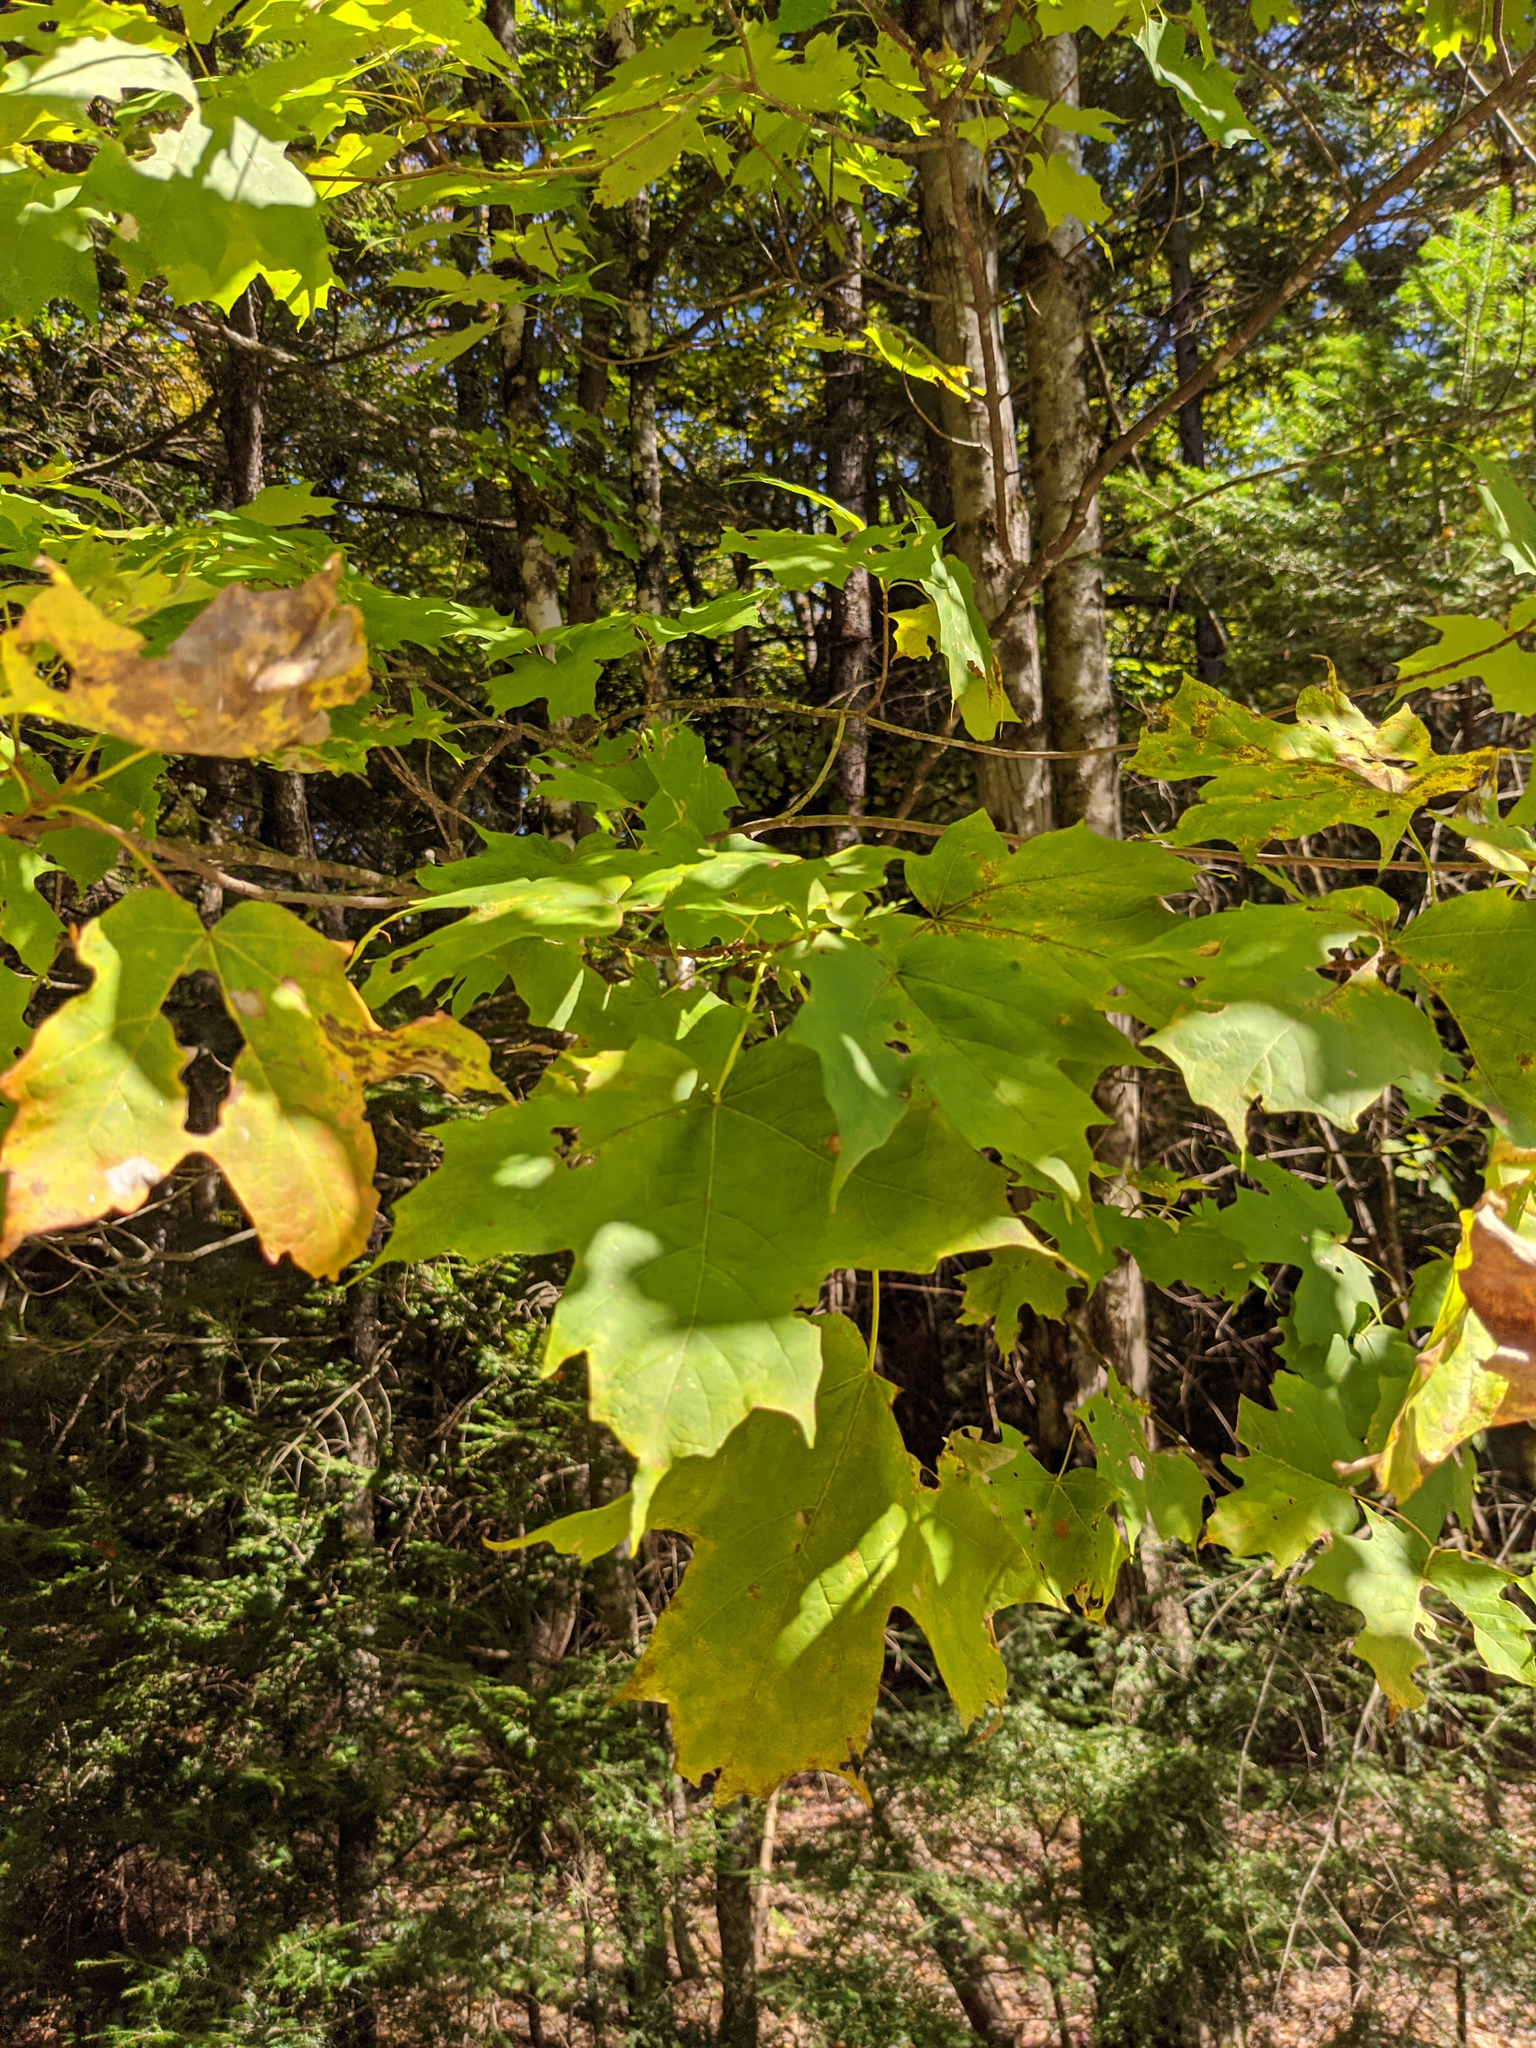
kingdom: Plantae
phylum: Tracheophyta
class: Magnoliopsida
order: Sapindales
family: Sapindaceae
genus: Acer
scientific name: Acer saccharum
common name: Sugar maple
